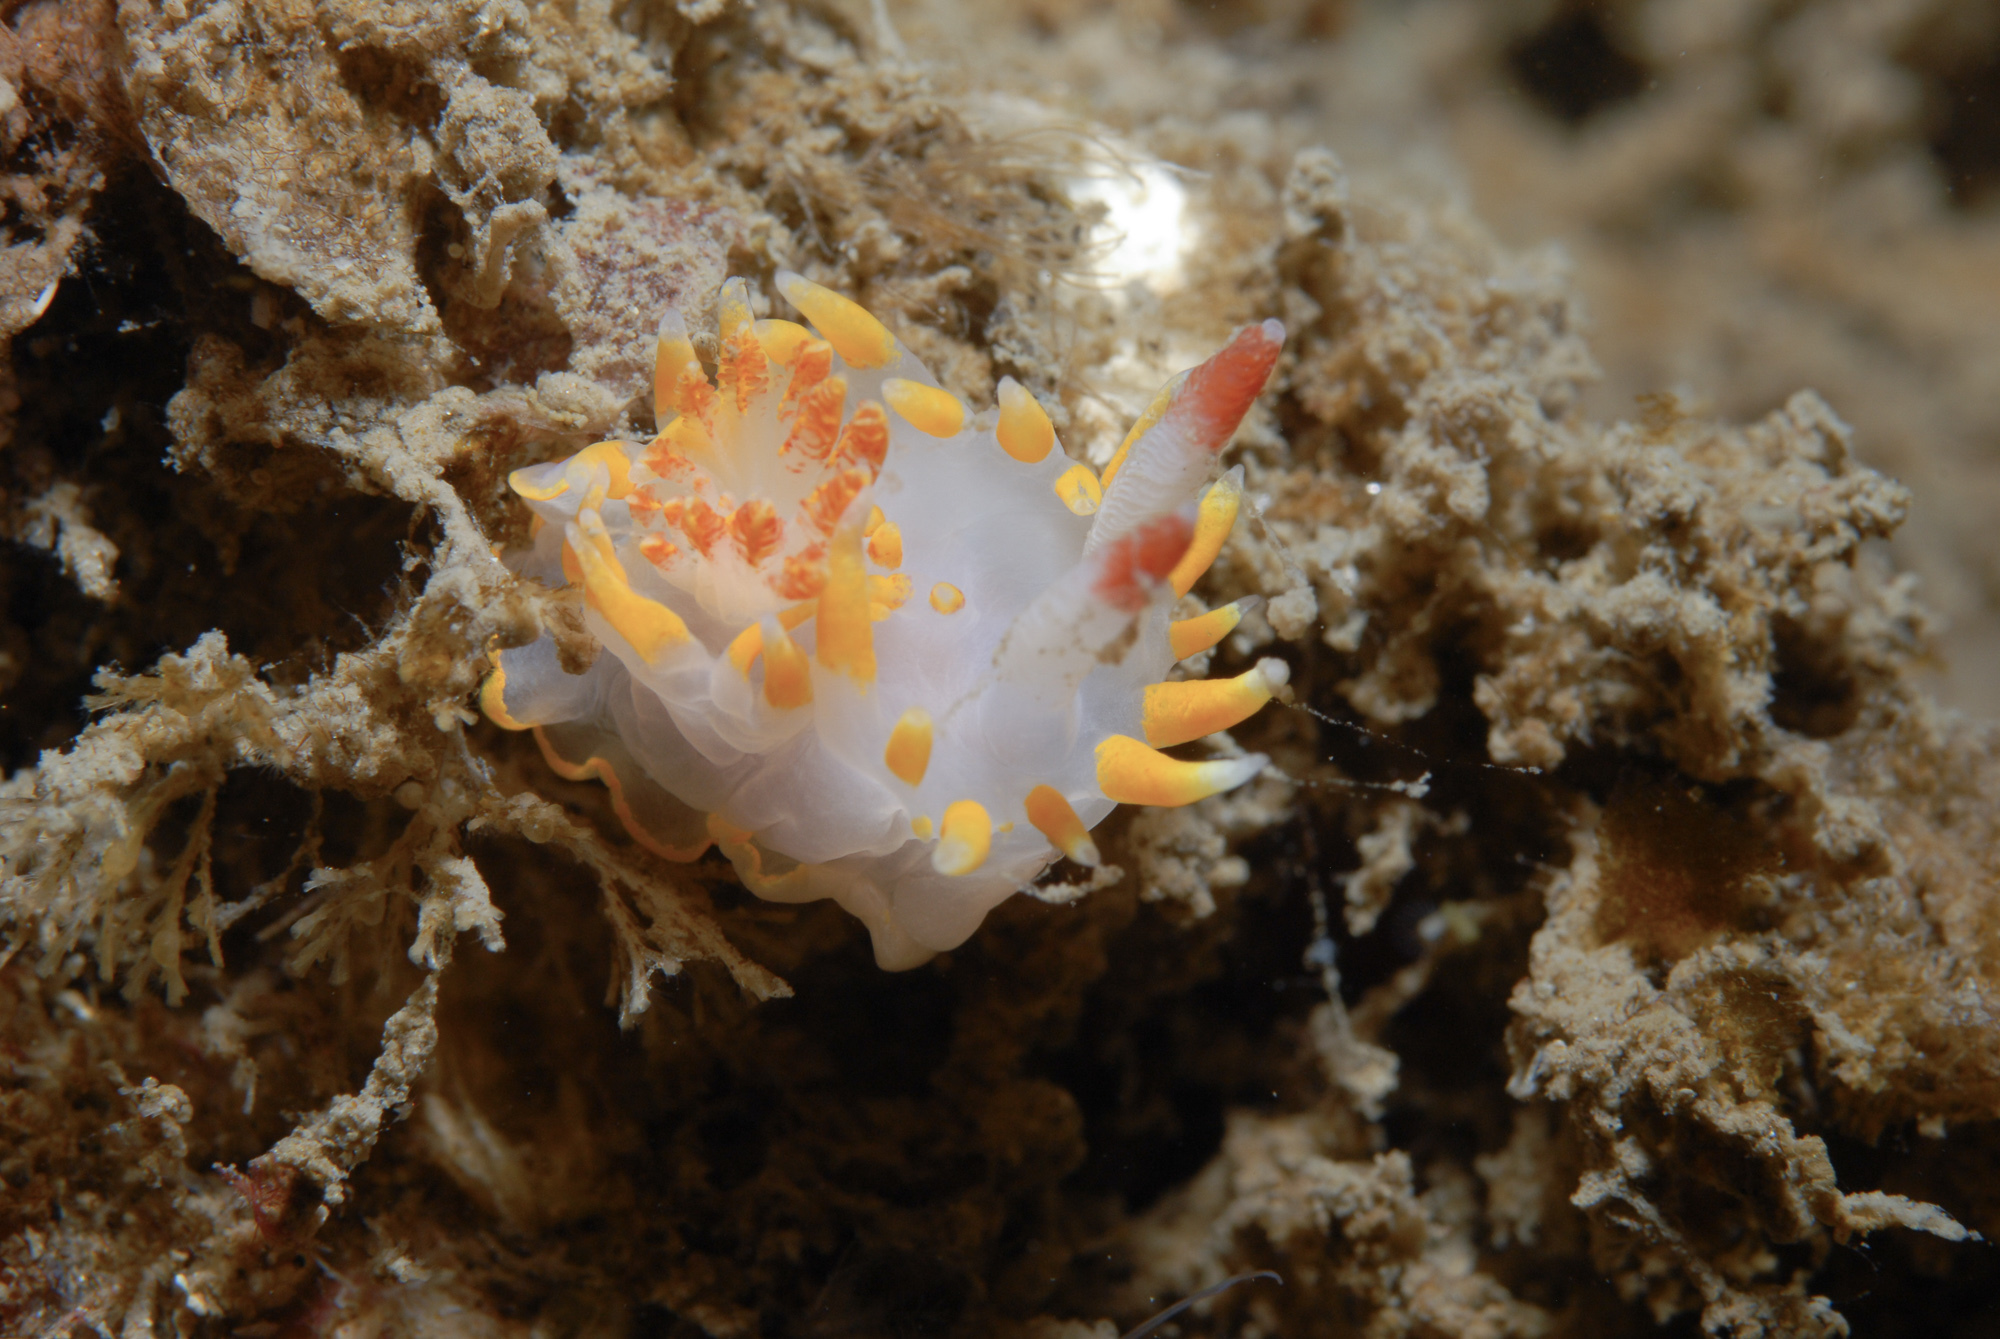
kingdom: Animalia
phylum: Mollusca
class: Gastropoda
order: Nudibranchia
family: Goniodorididae
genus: Okenia
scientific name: Okenia elegans
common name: Yellow skirt slug
